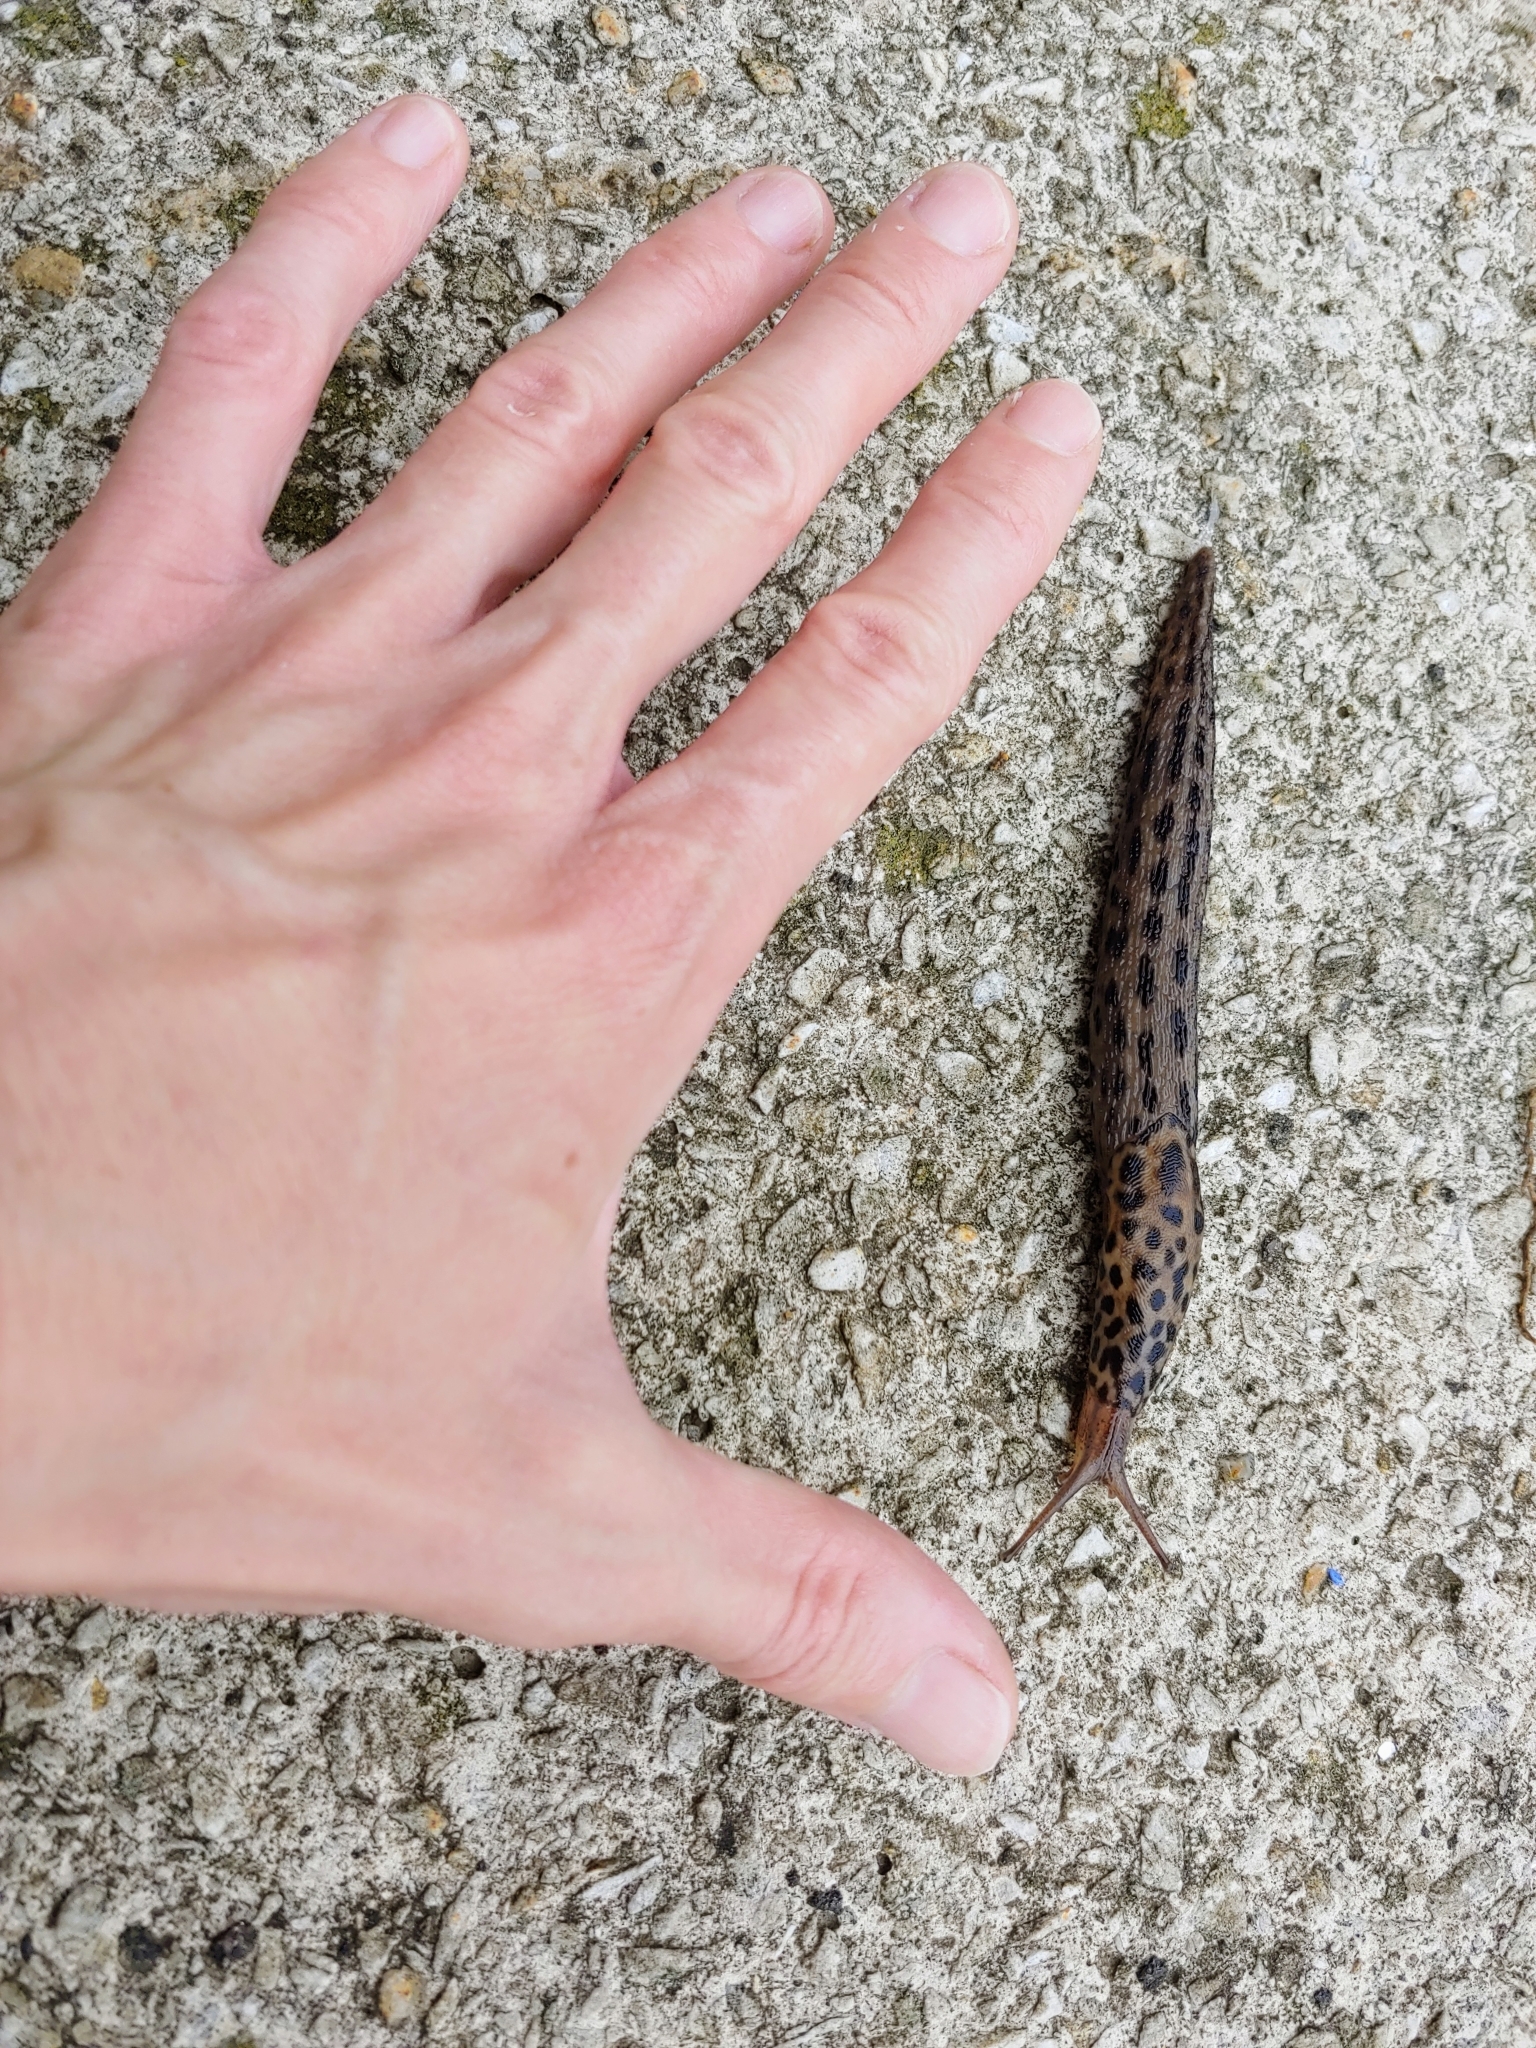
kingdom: Animalia
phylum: Mollusca
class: Gastropoda
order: Stylommatophora
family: Limacidae
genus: Limax
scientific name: Limax maximus
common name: Great grey slug
